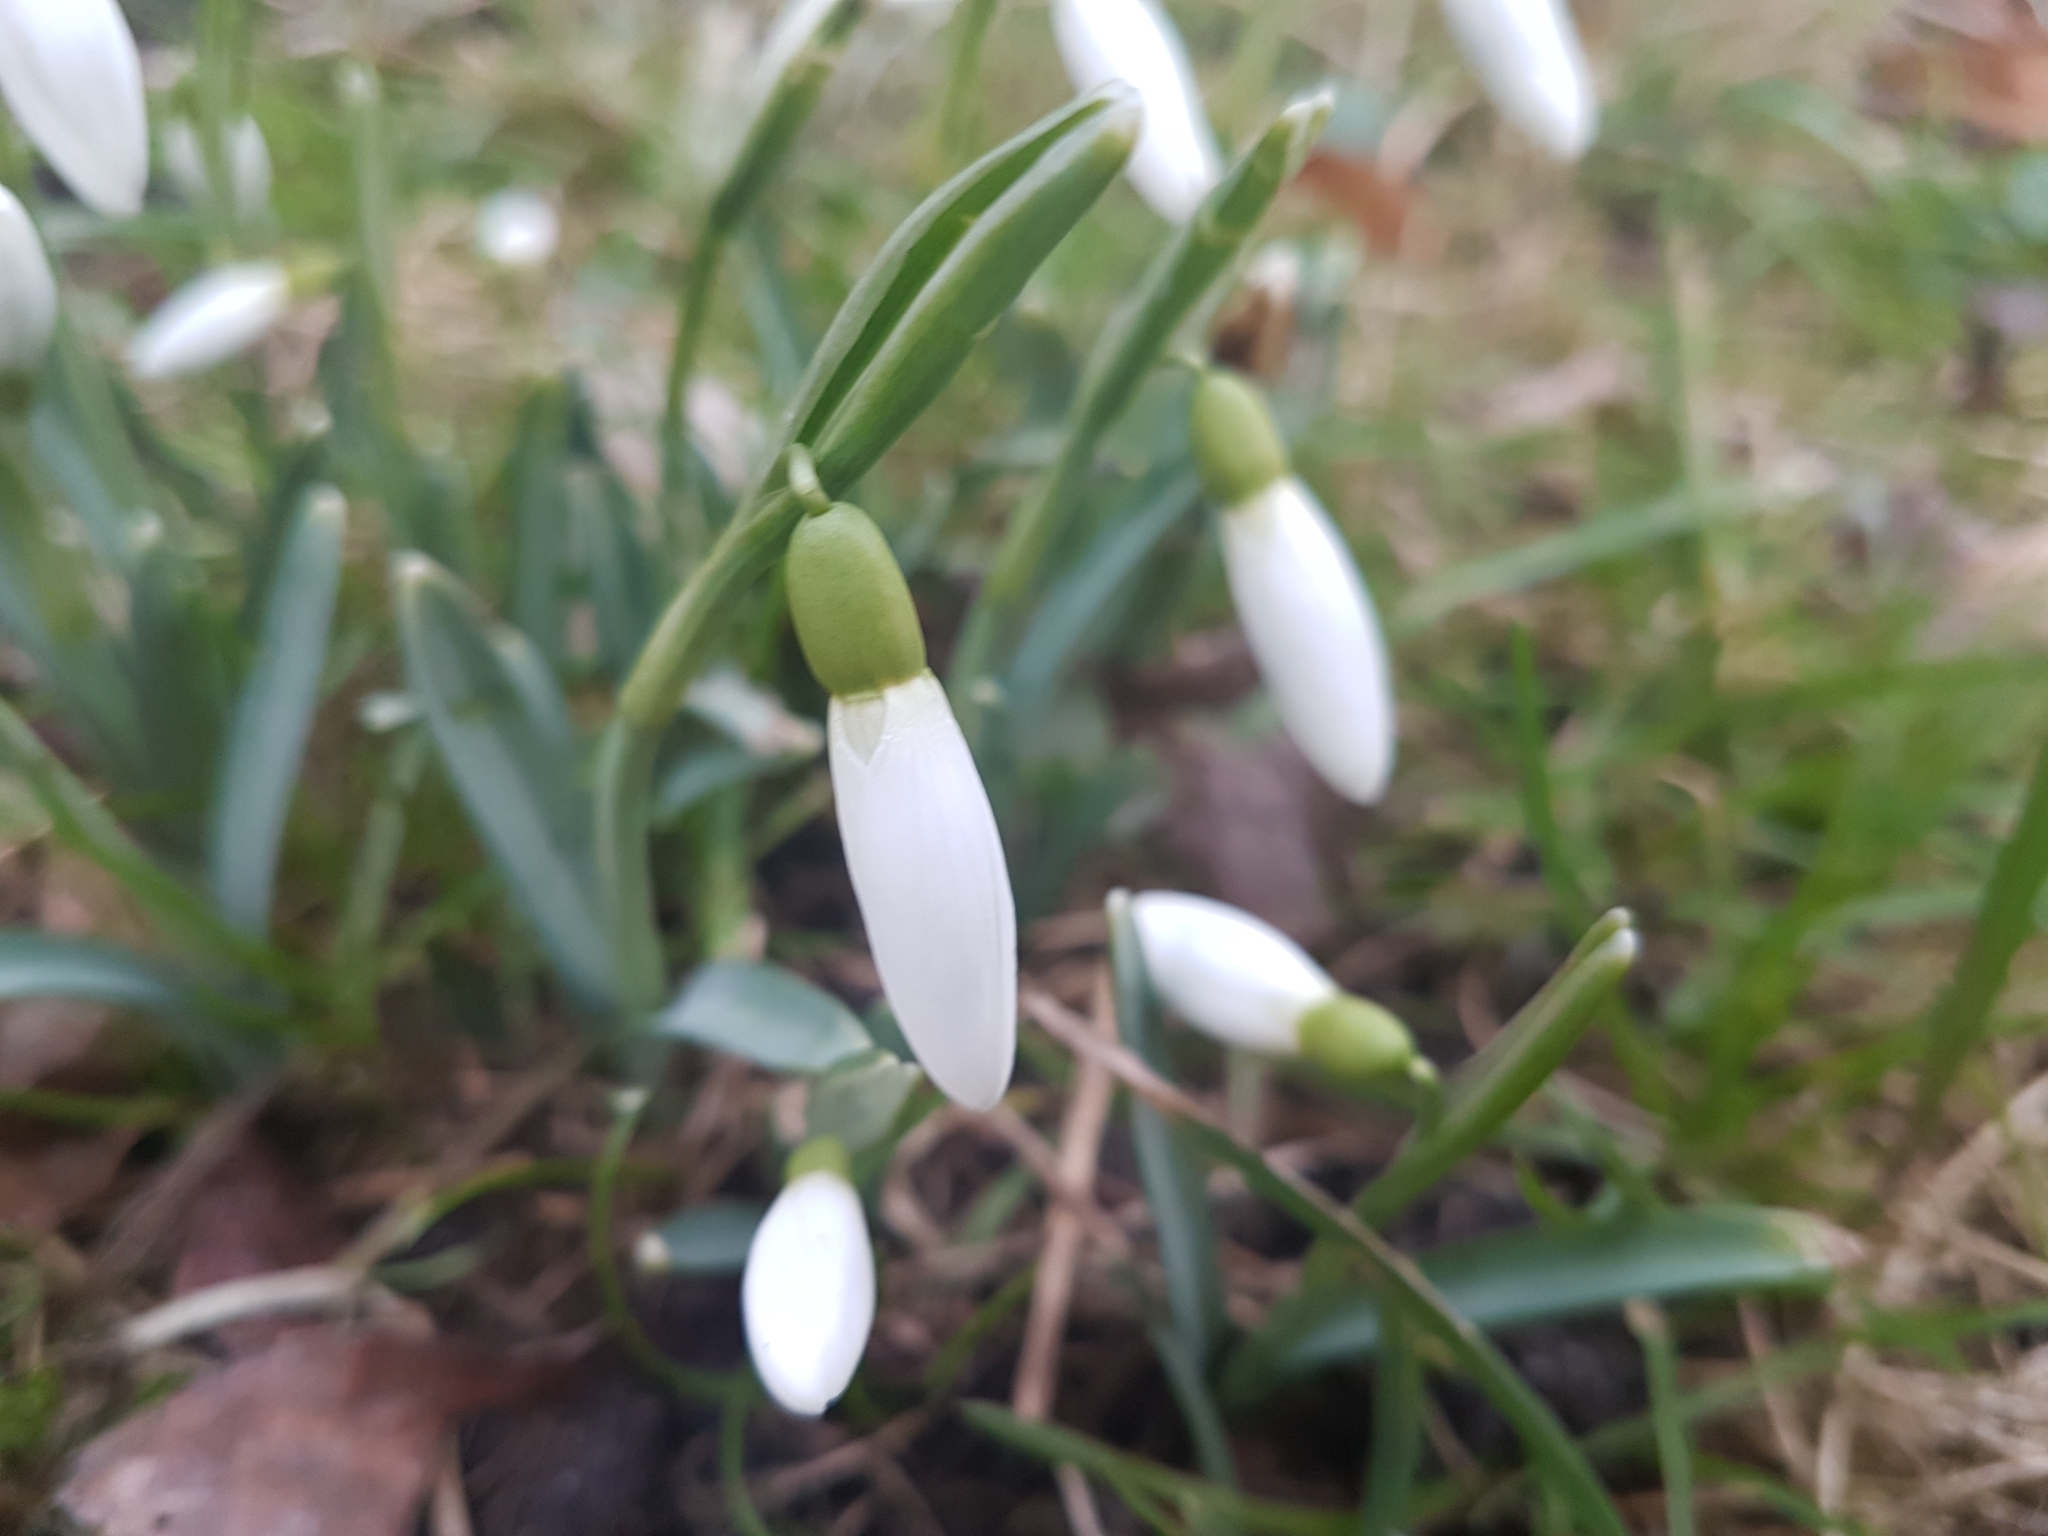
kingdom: Plantae
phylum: Tracheophyta
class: Liliopsida
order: Asparagales
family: Amaryllidaceae
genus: Galanthus
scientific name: Galanthus nivalis
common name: Snowdrop
